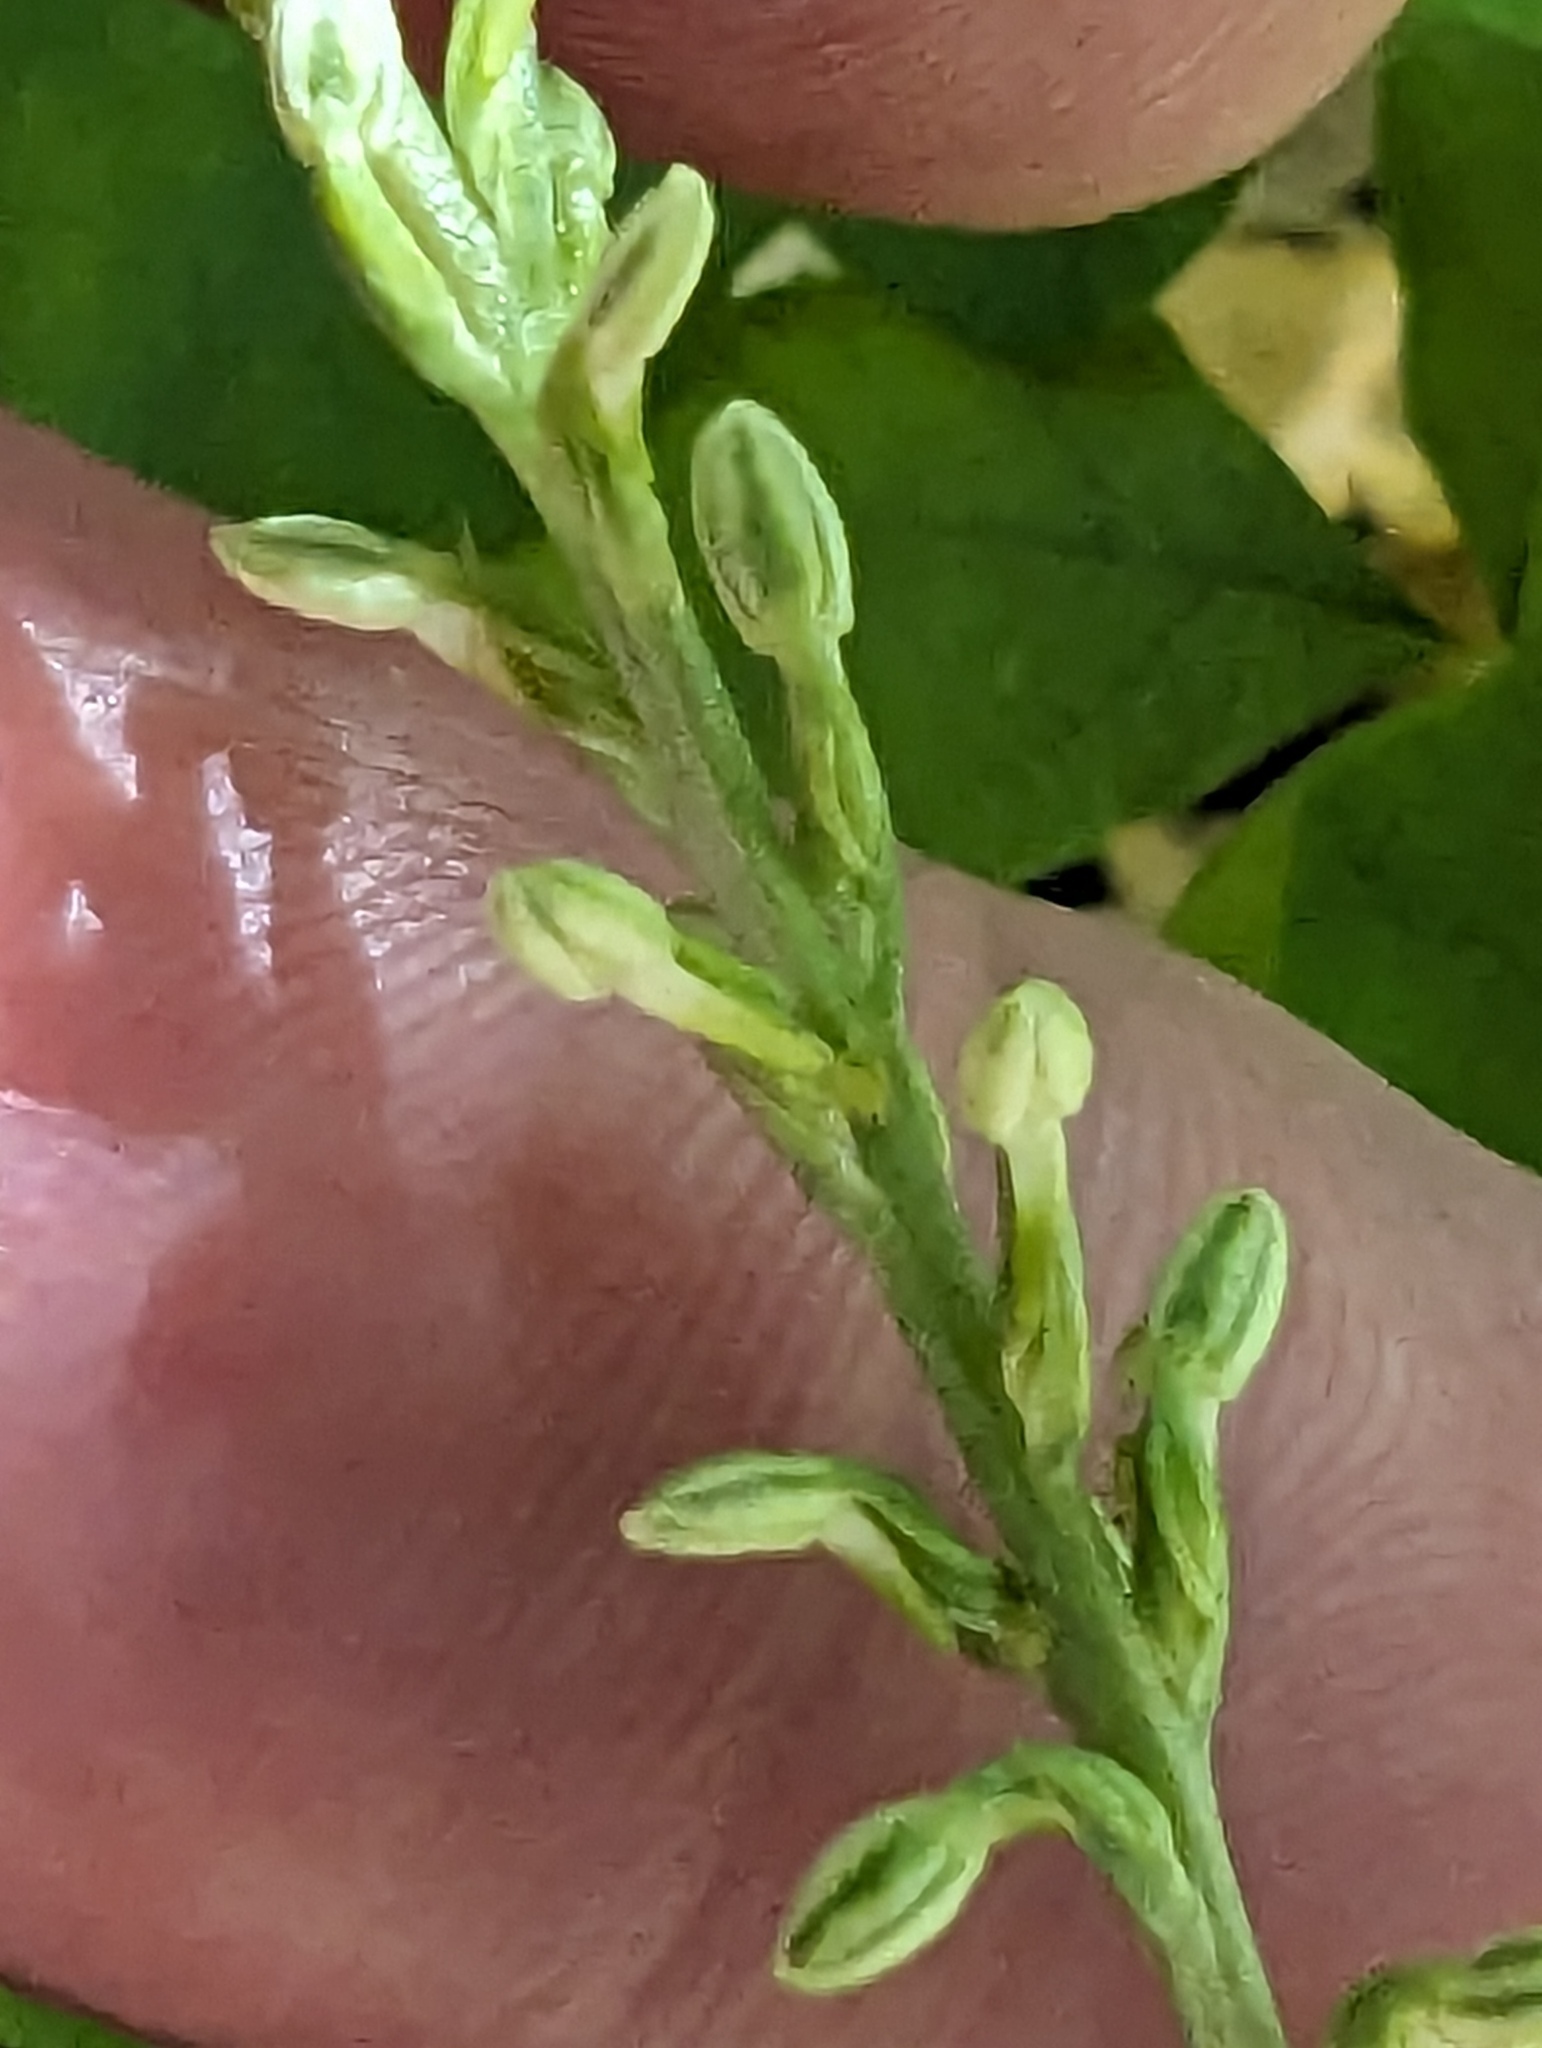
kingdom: Plantae
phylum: Tracheophyta
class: Liliopsida
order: Asparagales
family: Orchidaceae
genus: Platanthera
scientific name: Platanthera transversa
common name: Royal rein orchid
